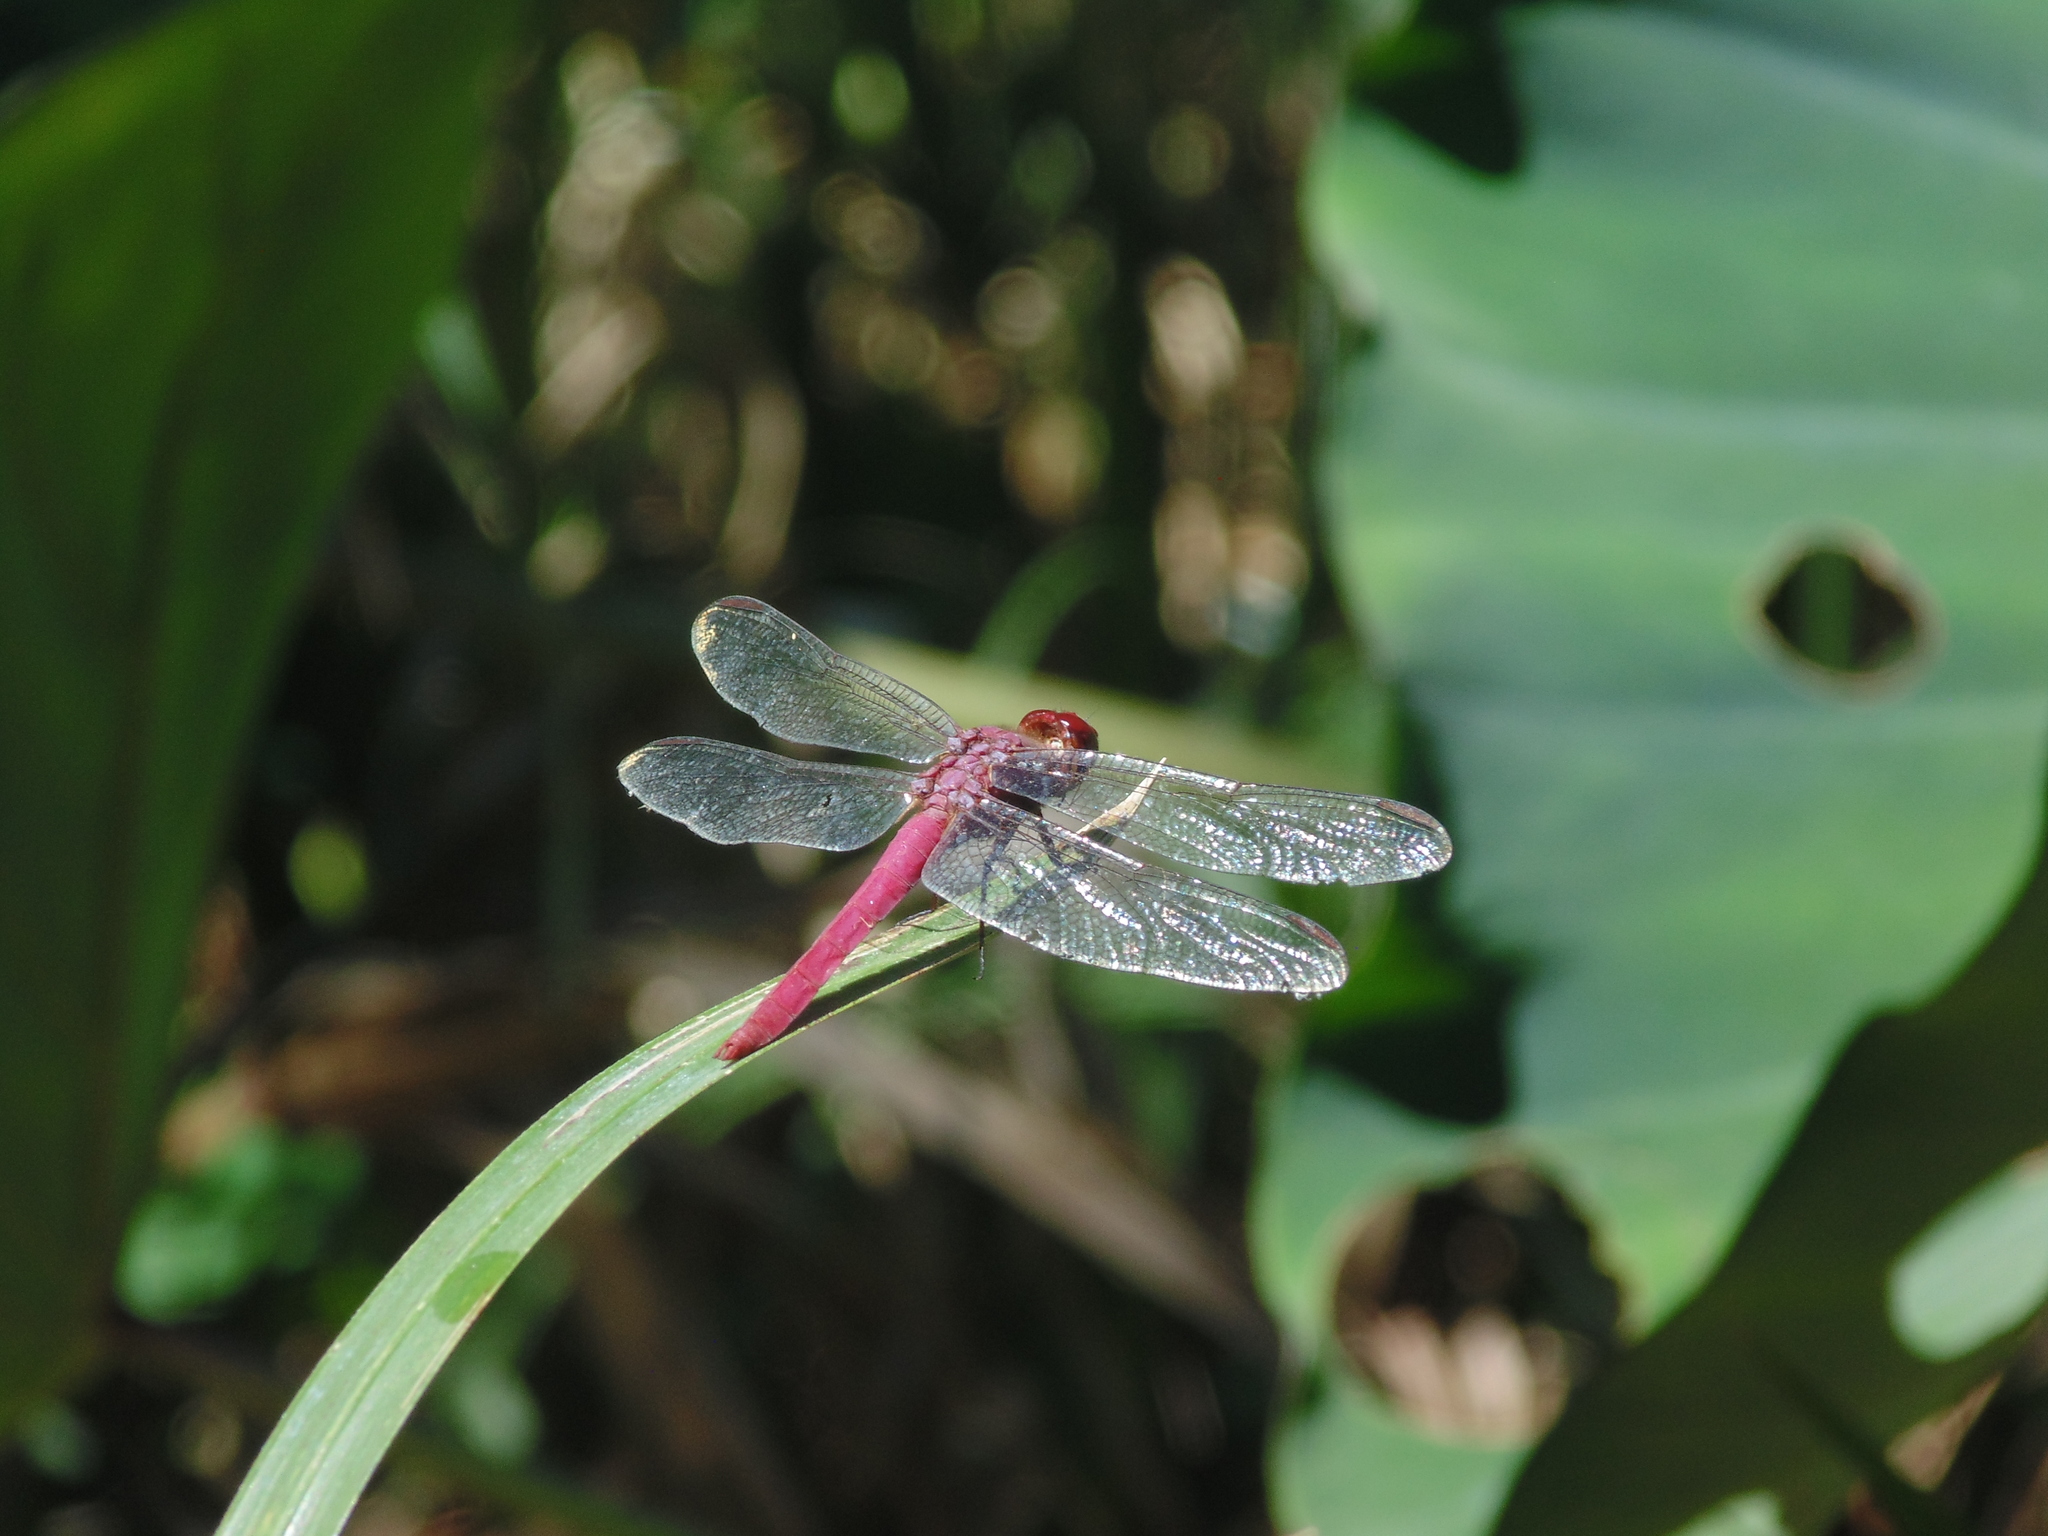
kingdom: Animalia
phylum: Arthropoda
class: Insecta
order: Odonata
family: Libellulidae
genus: Orthemis
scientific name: Orthemis discolor
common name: Carmine skimmer
